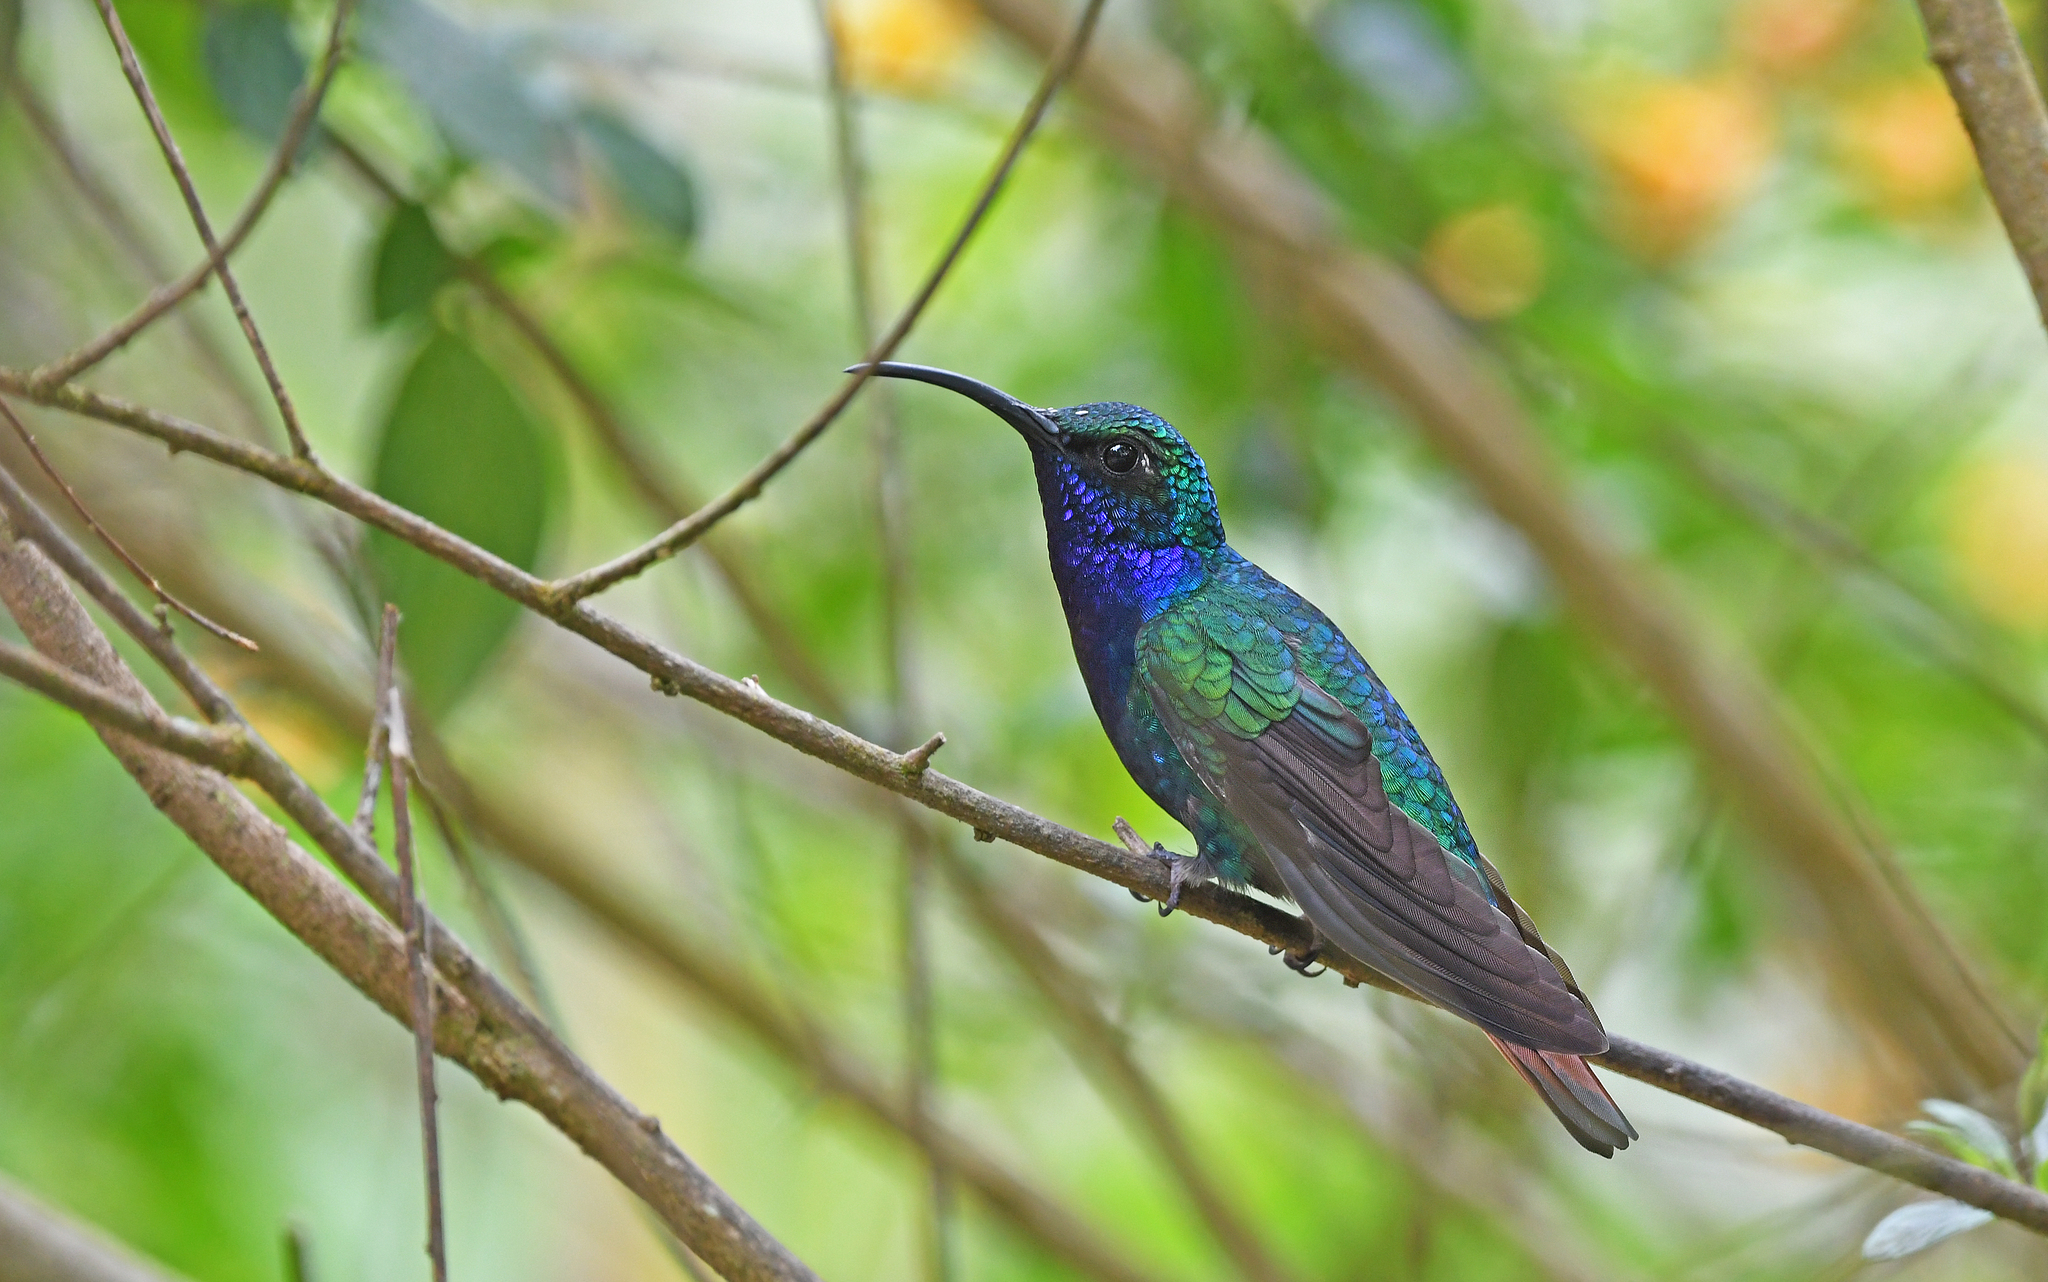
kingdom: Animalia
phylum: Chordata
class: Aves
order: Apodiformes
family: Trochilidae
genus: Campylopterus
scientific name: Campylopterus falcatus
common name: Lazuline sabrewing
